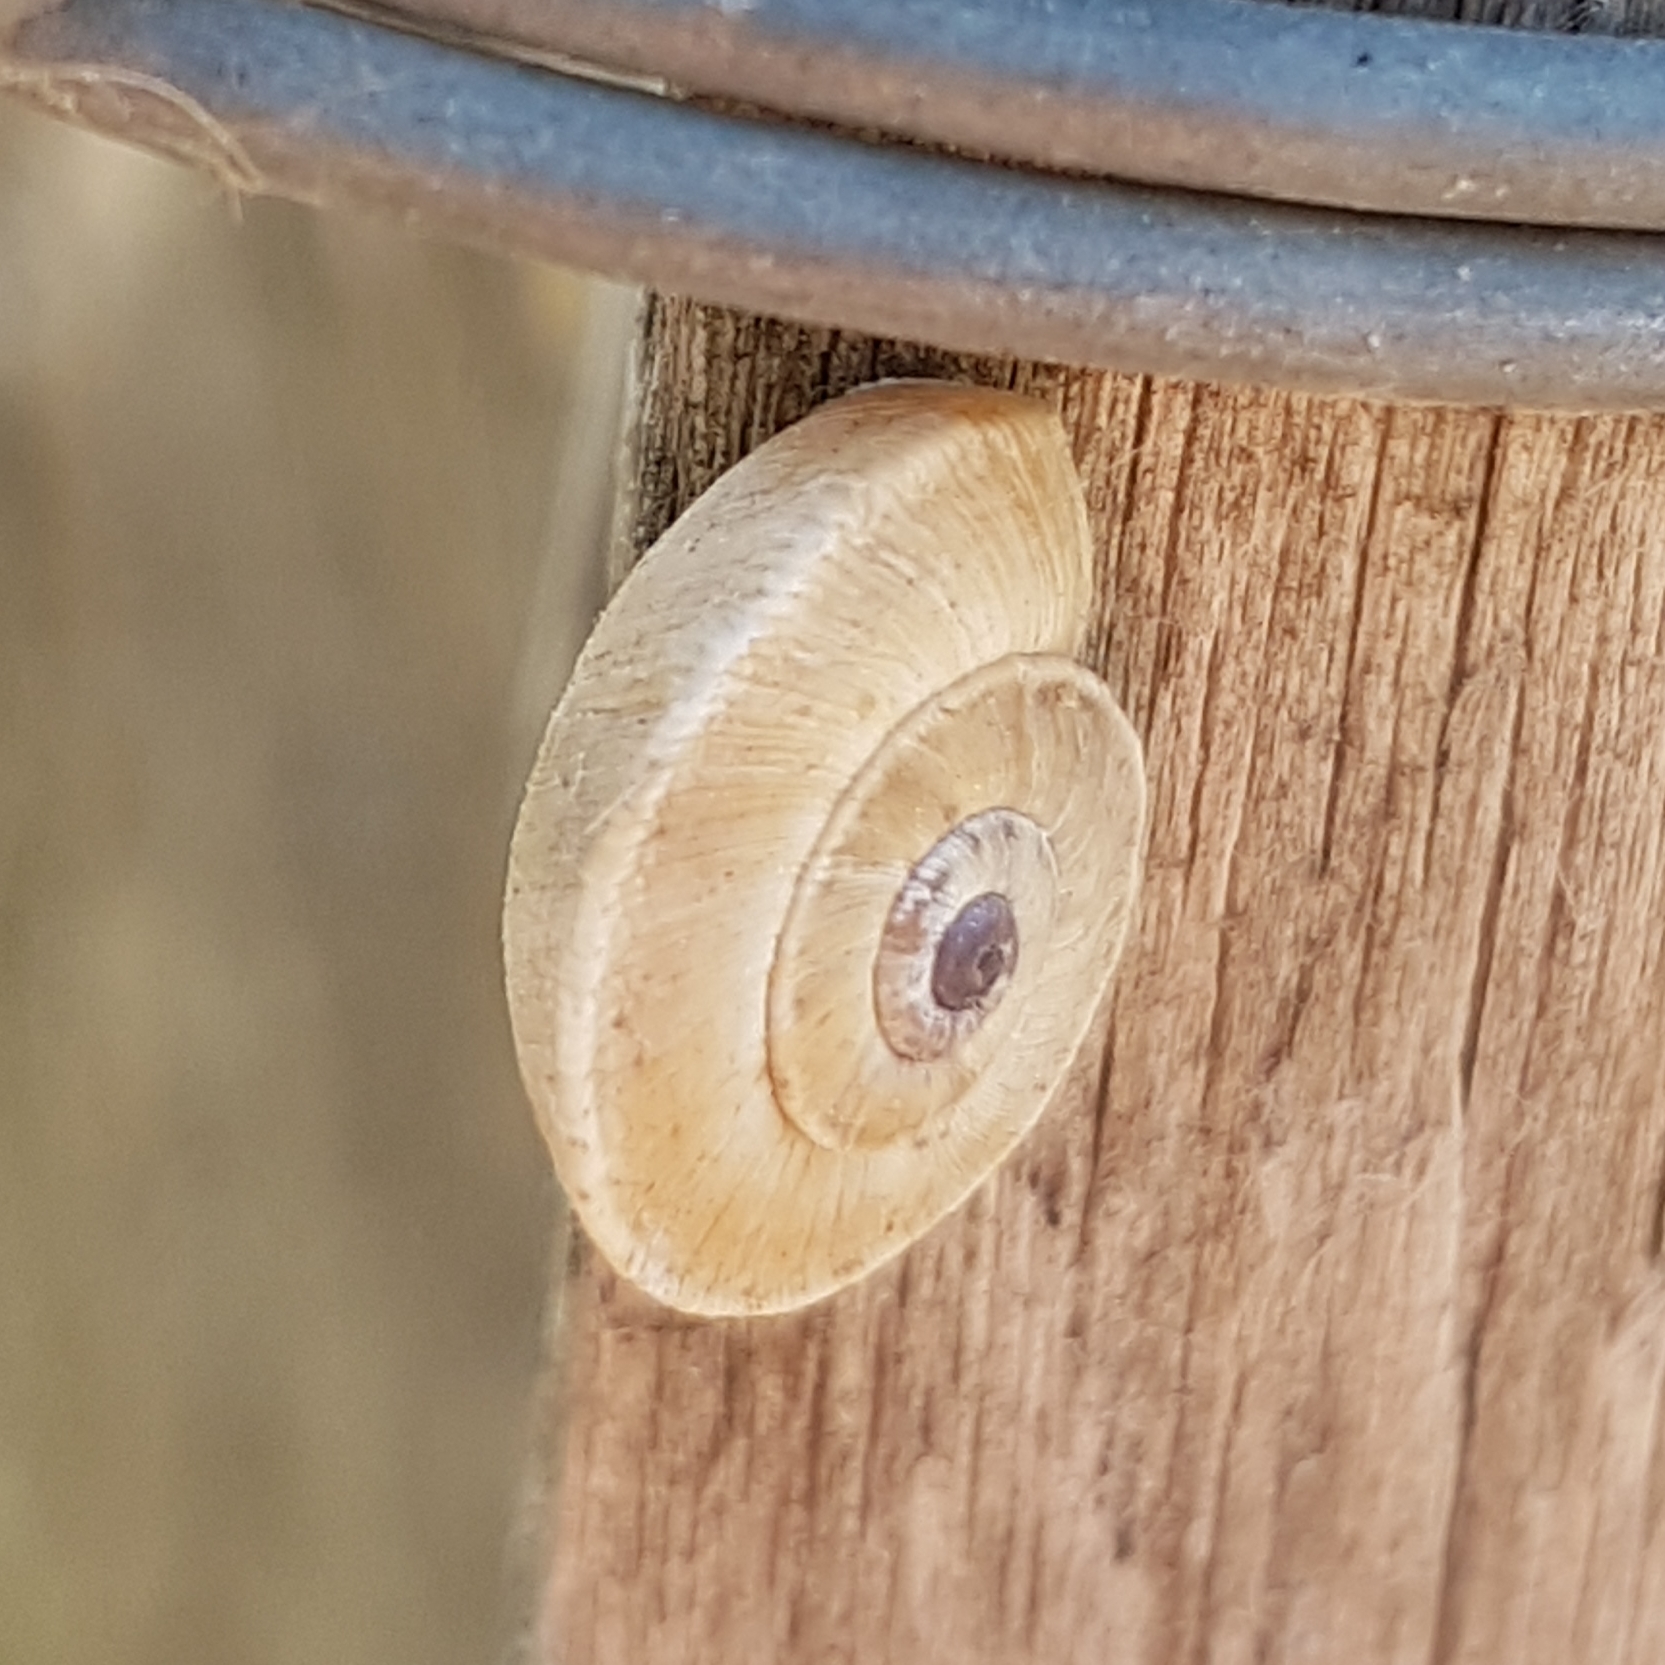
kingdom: Animalia
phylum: Mollusca
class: Gastropoda
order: Stylommatophora
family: Geomitridae
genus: Xerosecta
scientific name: Xerosecta explanata
